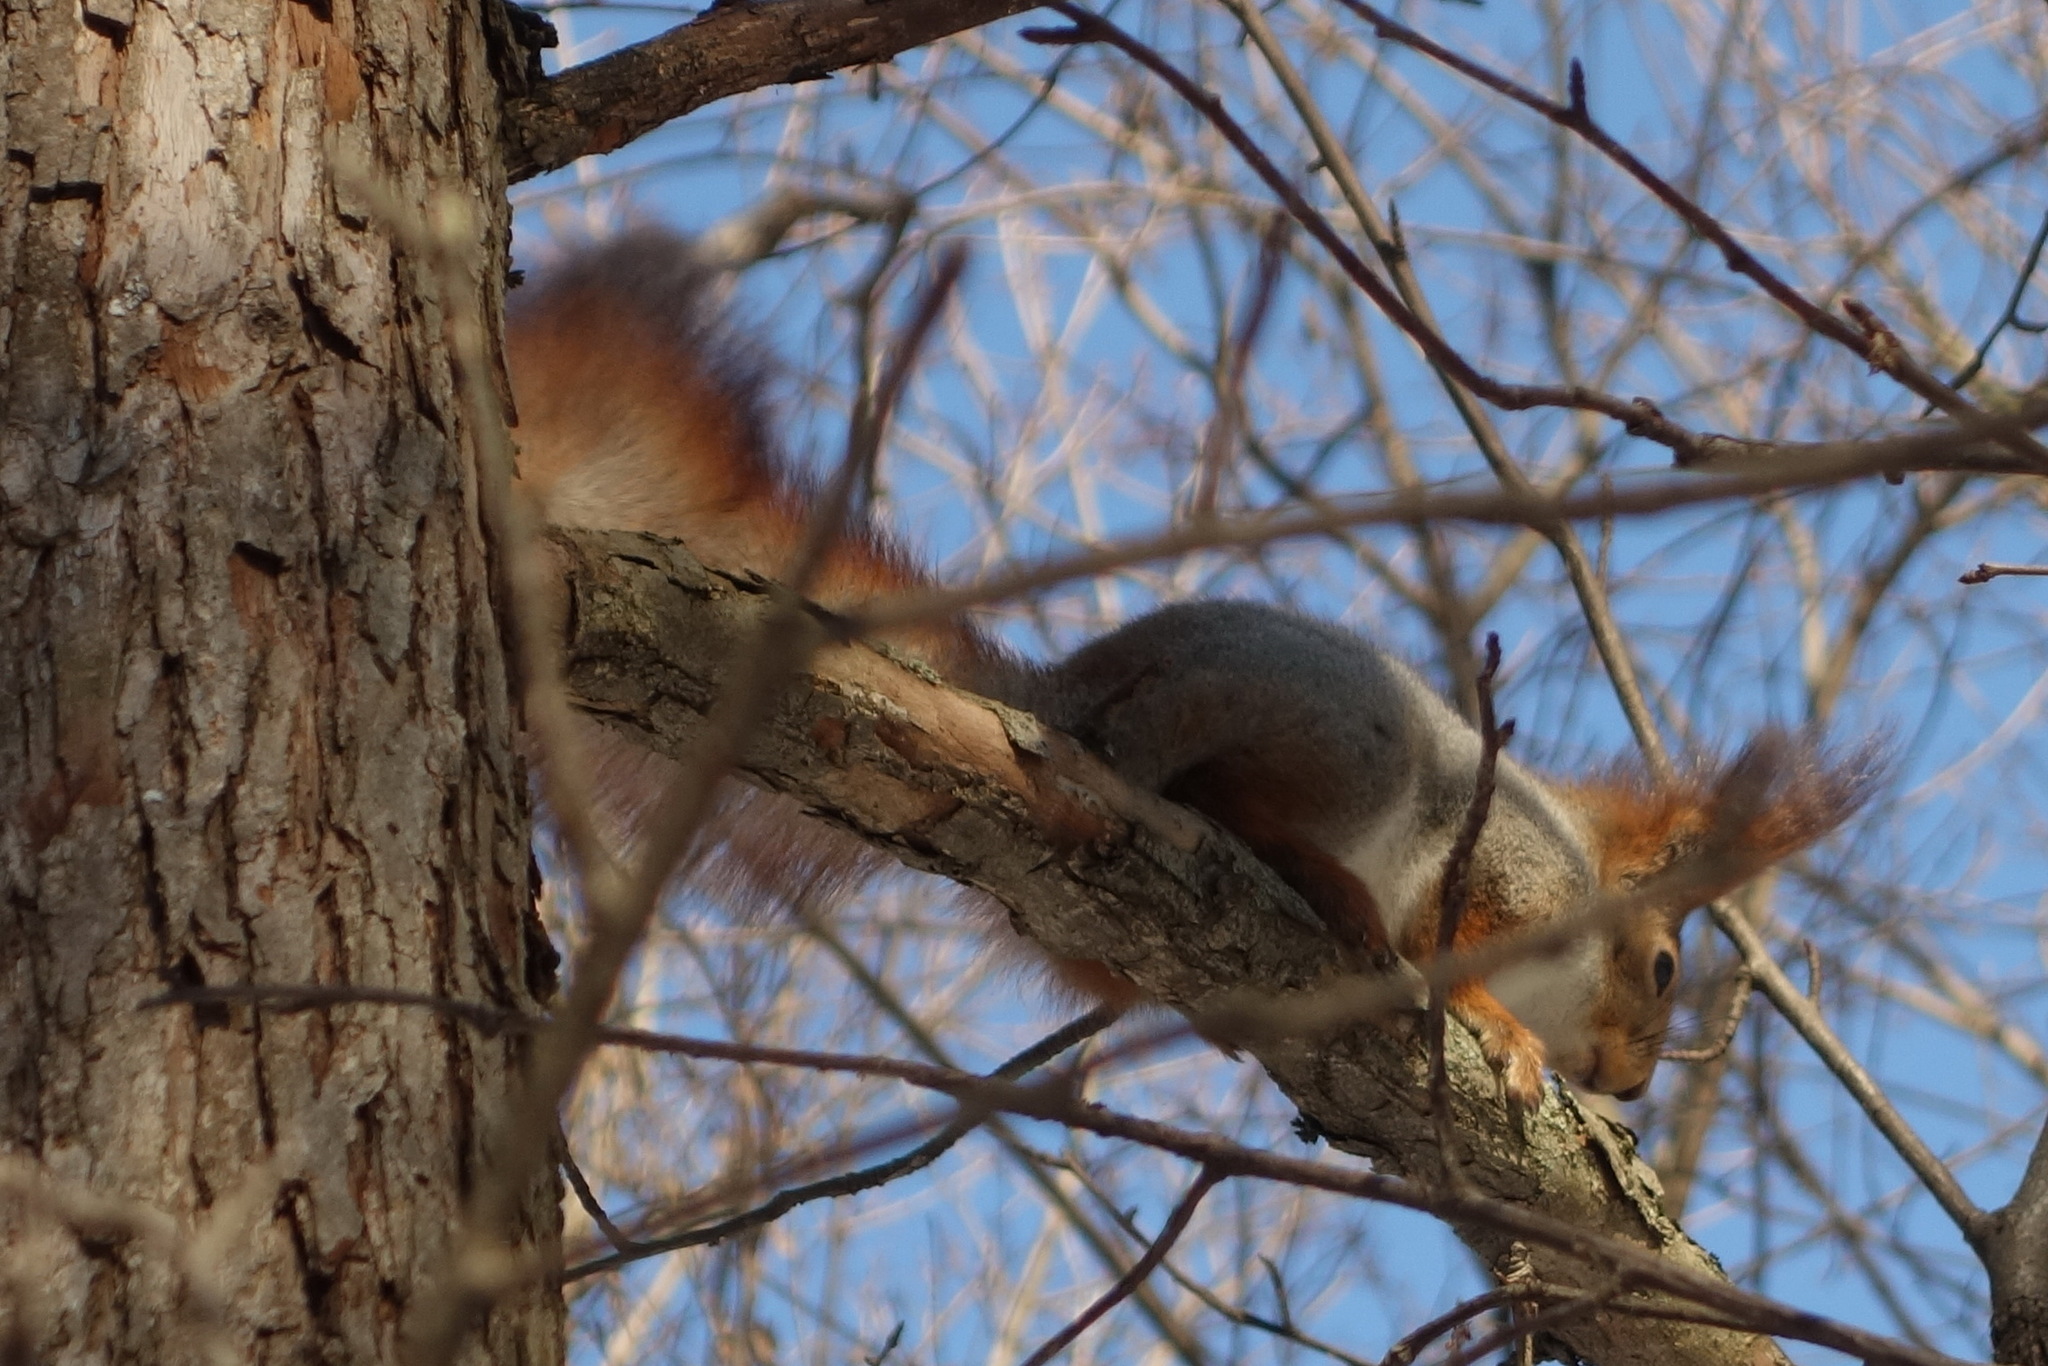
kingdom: Animalia
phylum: Chordata
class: Mammalia
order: Rodentia
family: Sciuridae
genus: Sciurus
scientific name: Sciurus vulgaris
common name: Eurasian red squirrel
